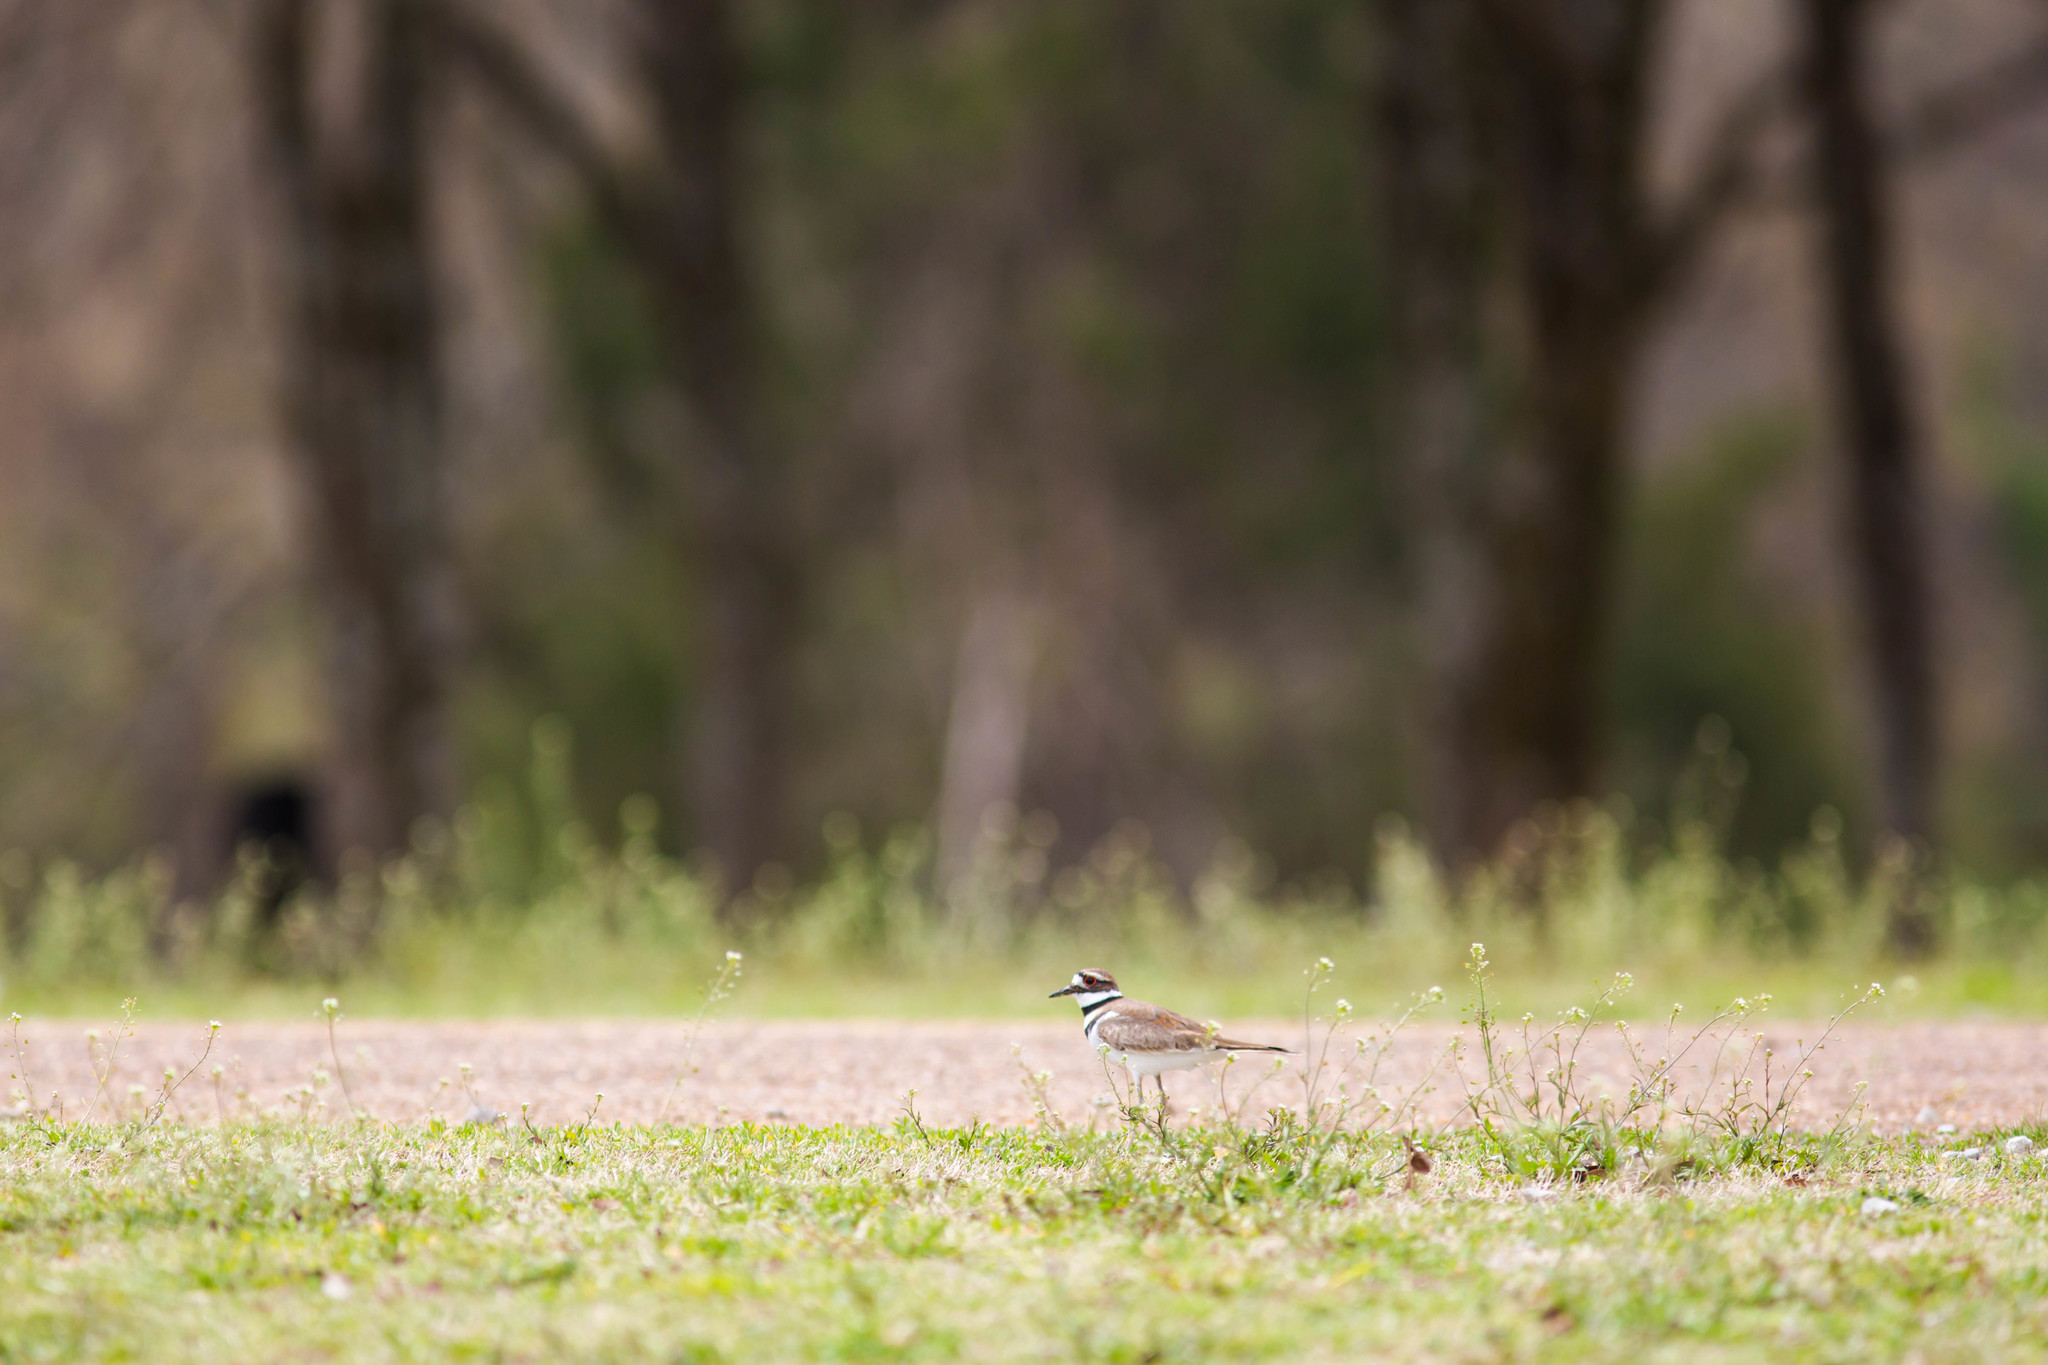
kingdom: Animalia
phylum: Chordata
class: Aves
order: Charadriiformes
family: Charadriidae
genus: Charadrius
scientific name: Charadrius vociferus
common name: Killdeer
